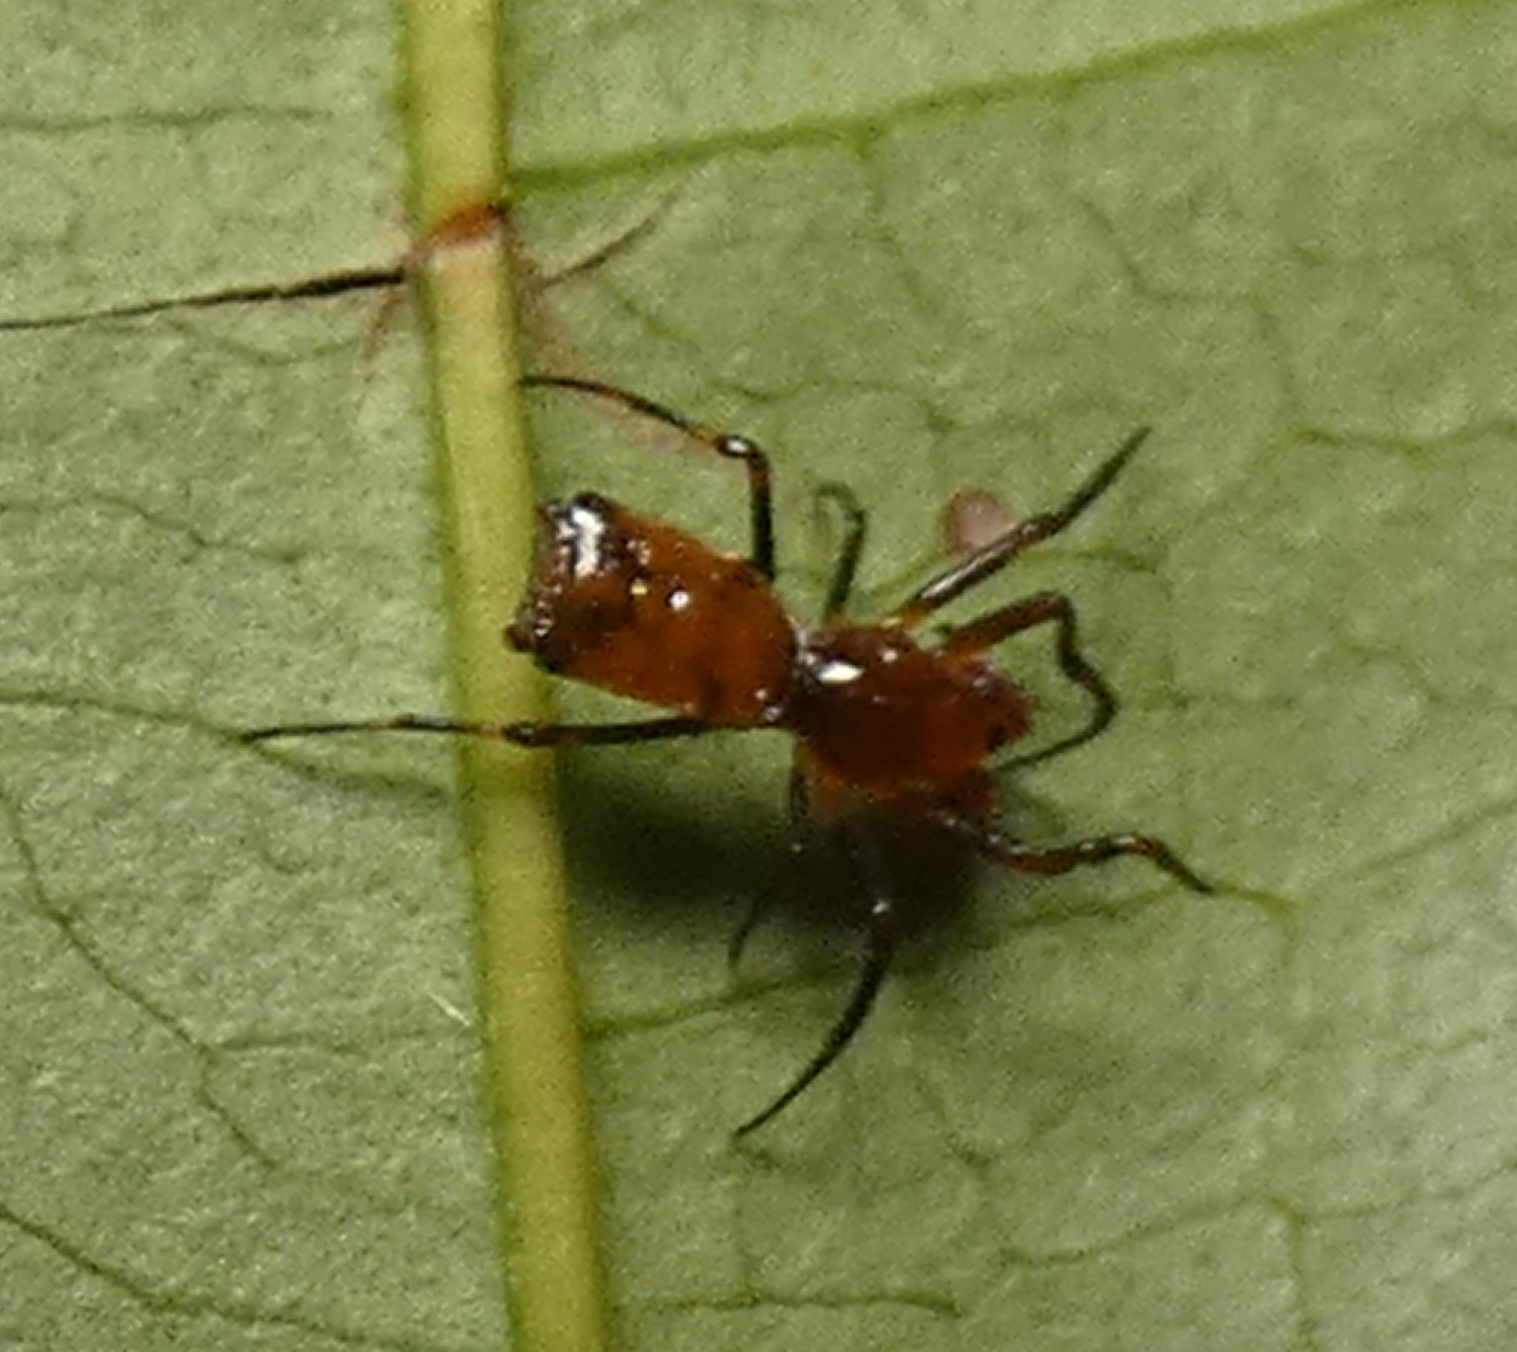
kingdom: Animalia
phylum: Arthropoda
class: Arachnida
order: Araneae
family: Araneidae
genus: Micrathena
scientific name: Micrathena picta
